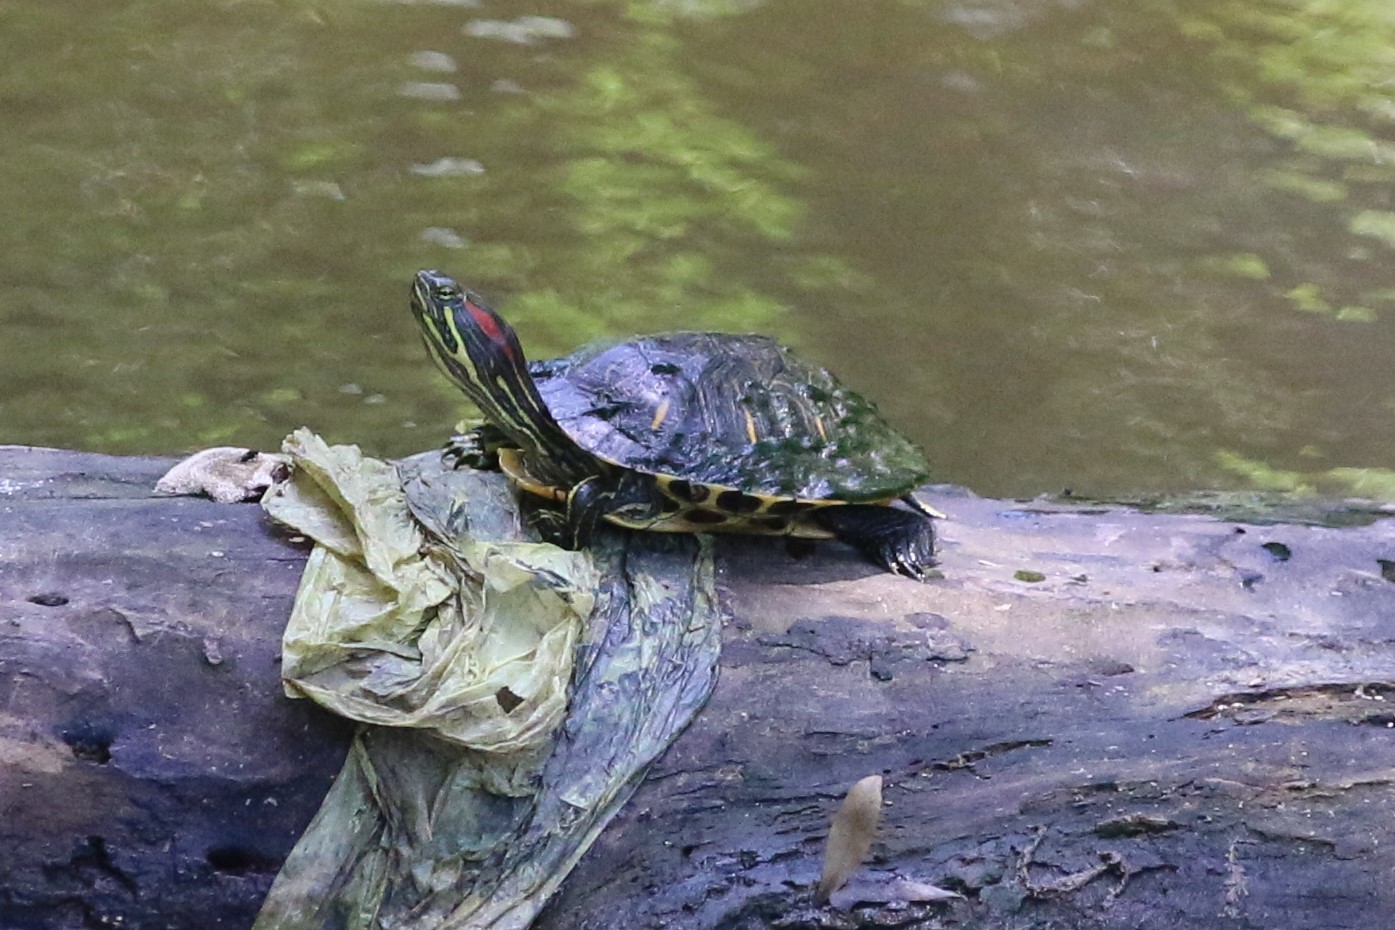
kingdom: Animalia
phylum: Chordata
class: Testudines
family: Emydidae
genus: Trachemys
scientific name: Trachemys scripta
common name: Slider
